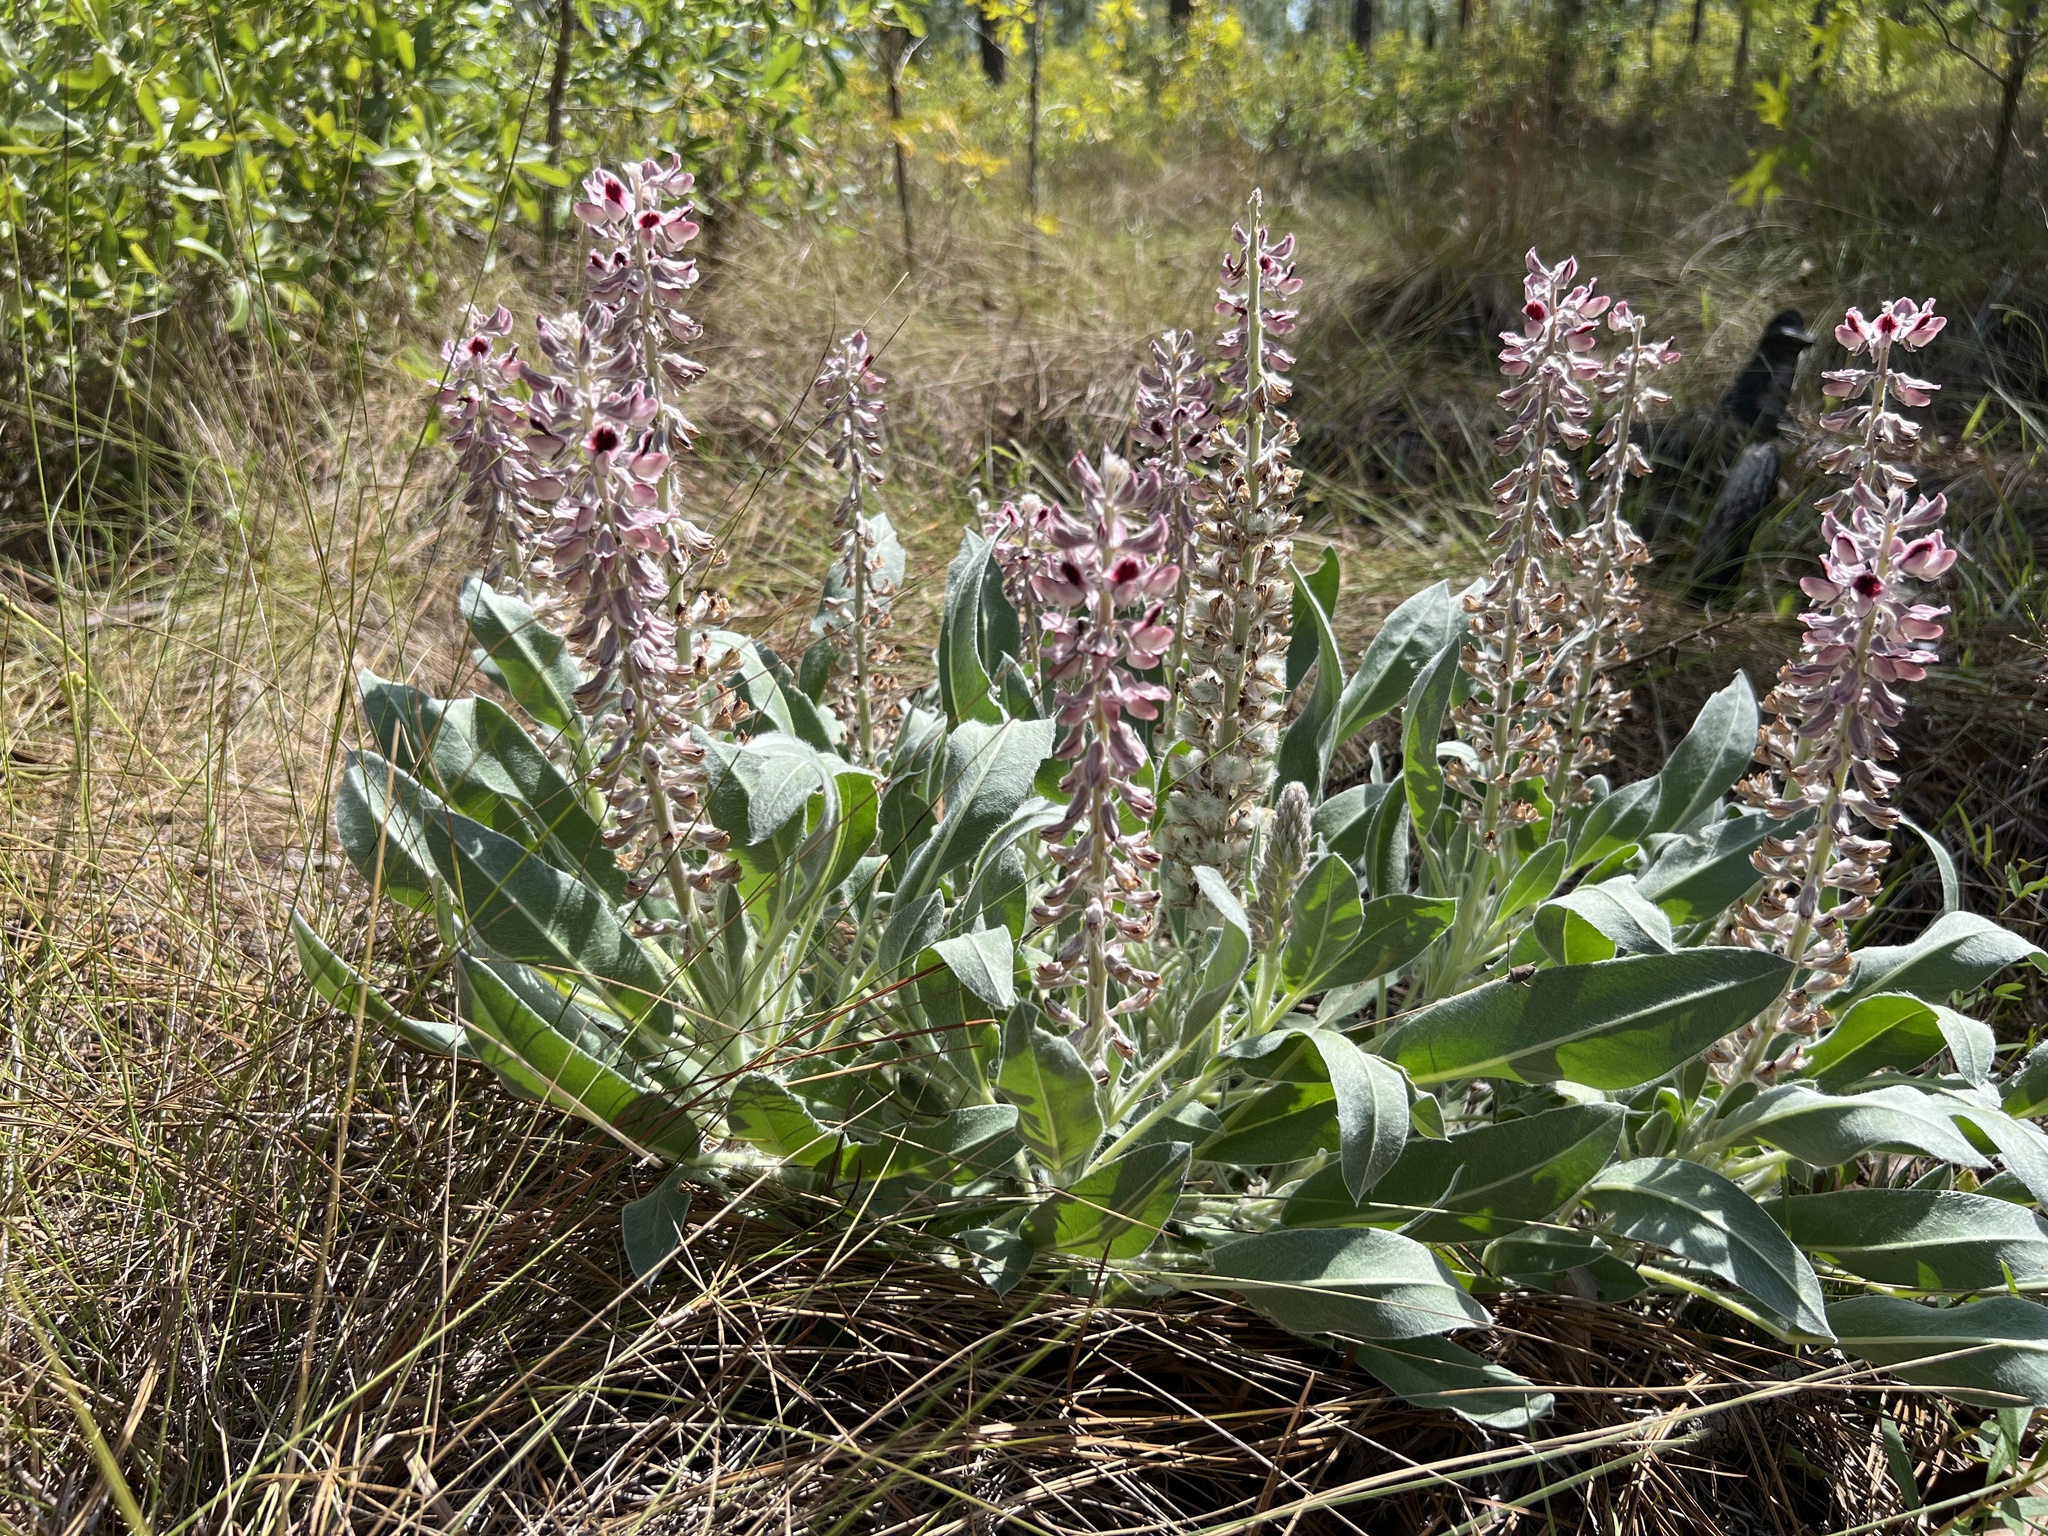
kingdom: Plantae
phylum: Tracheophyta
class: Magnoliopsida
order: Fabales
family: Fabaceae
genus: Lupinus
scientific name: Lupinus villosus
